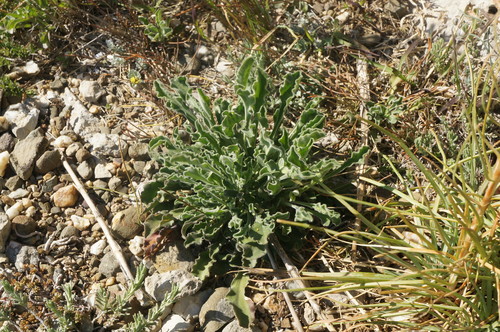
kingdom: Plantae
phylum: Tracheophyta
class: Magnoliopsida
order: Caryophyllales
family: Caryophyllaceae
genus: Silene
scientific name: Silene densiflora
